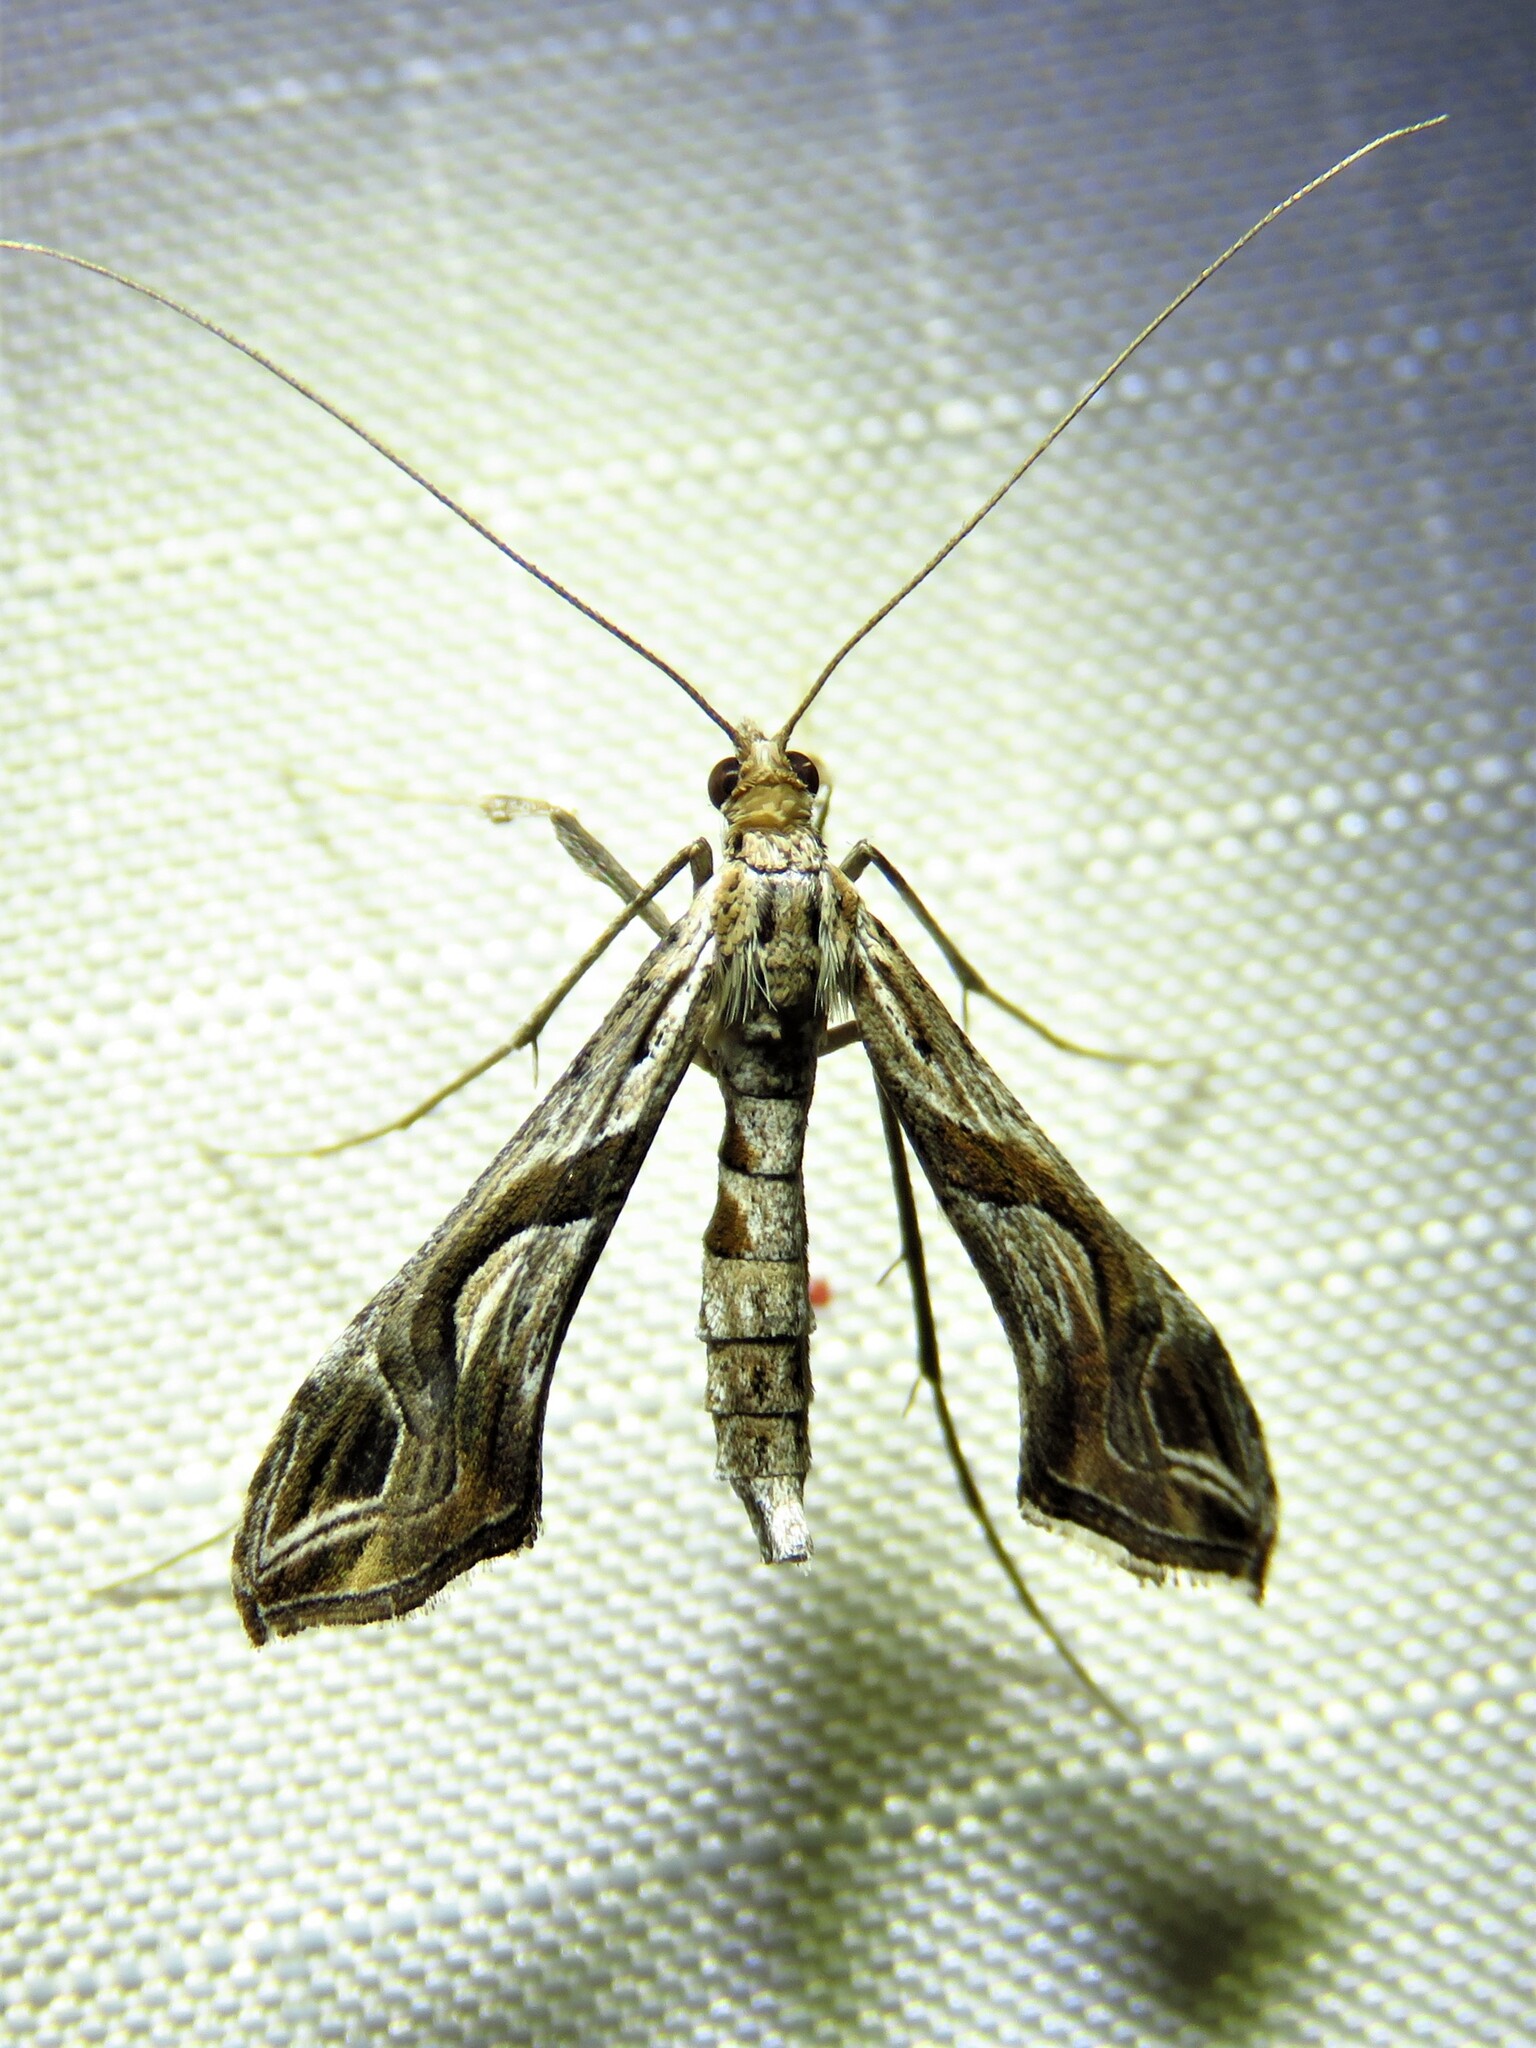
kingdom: Animalia
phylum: Arthropoda
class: Insecta
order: Lepidoptera
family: Crambidae
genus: Lineodes
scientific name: Lineodes integra
